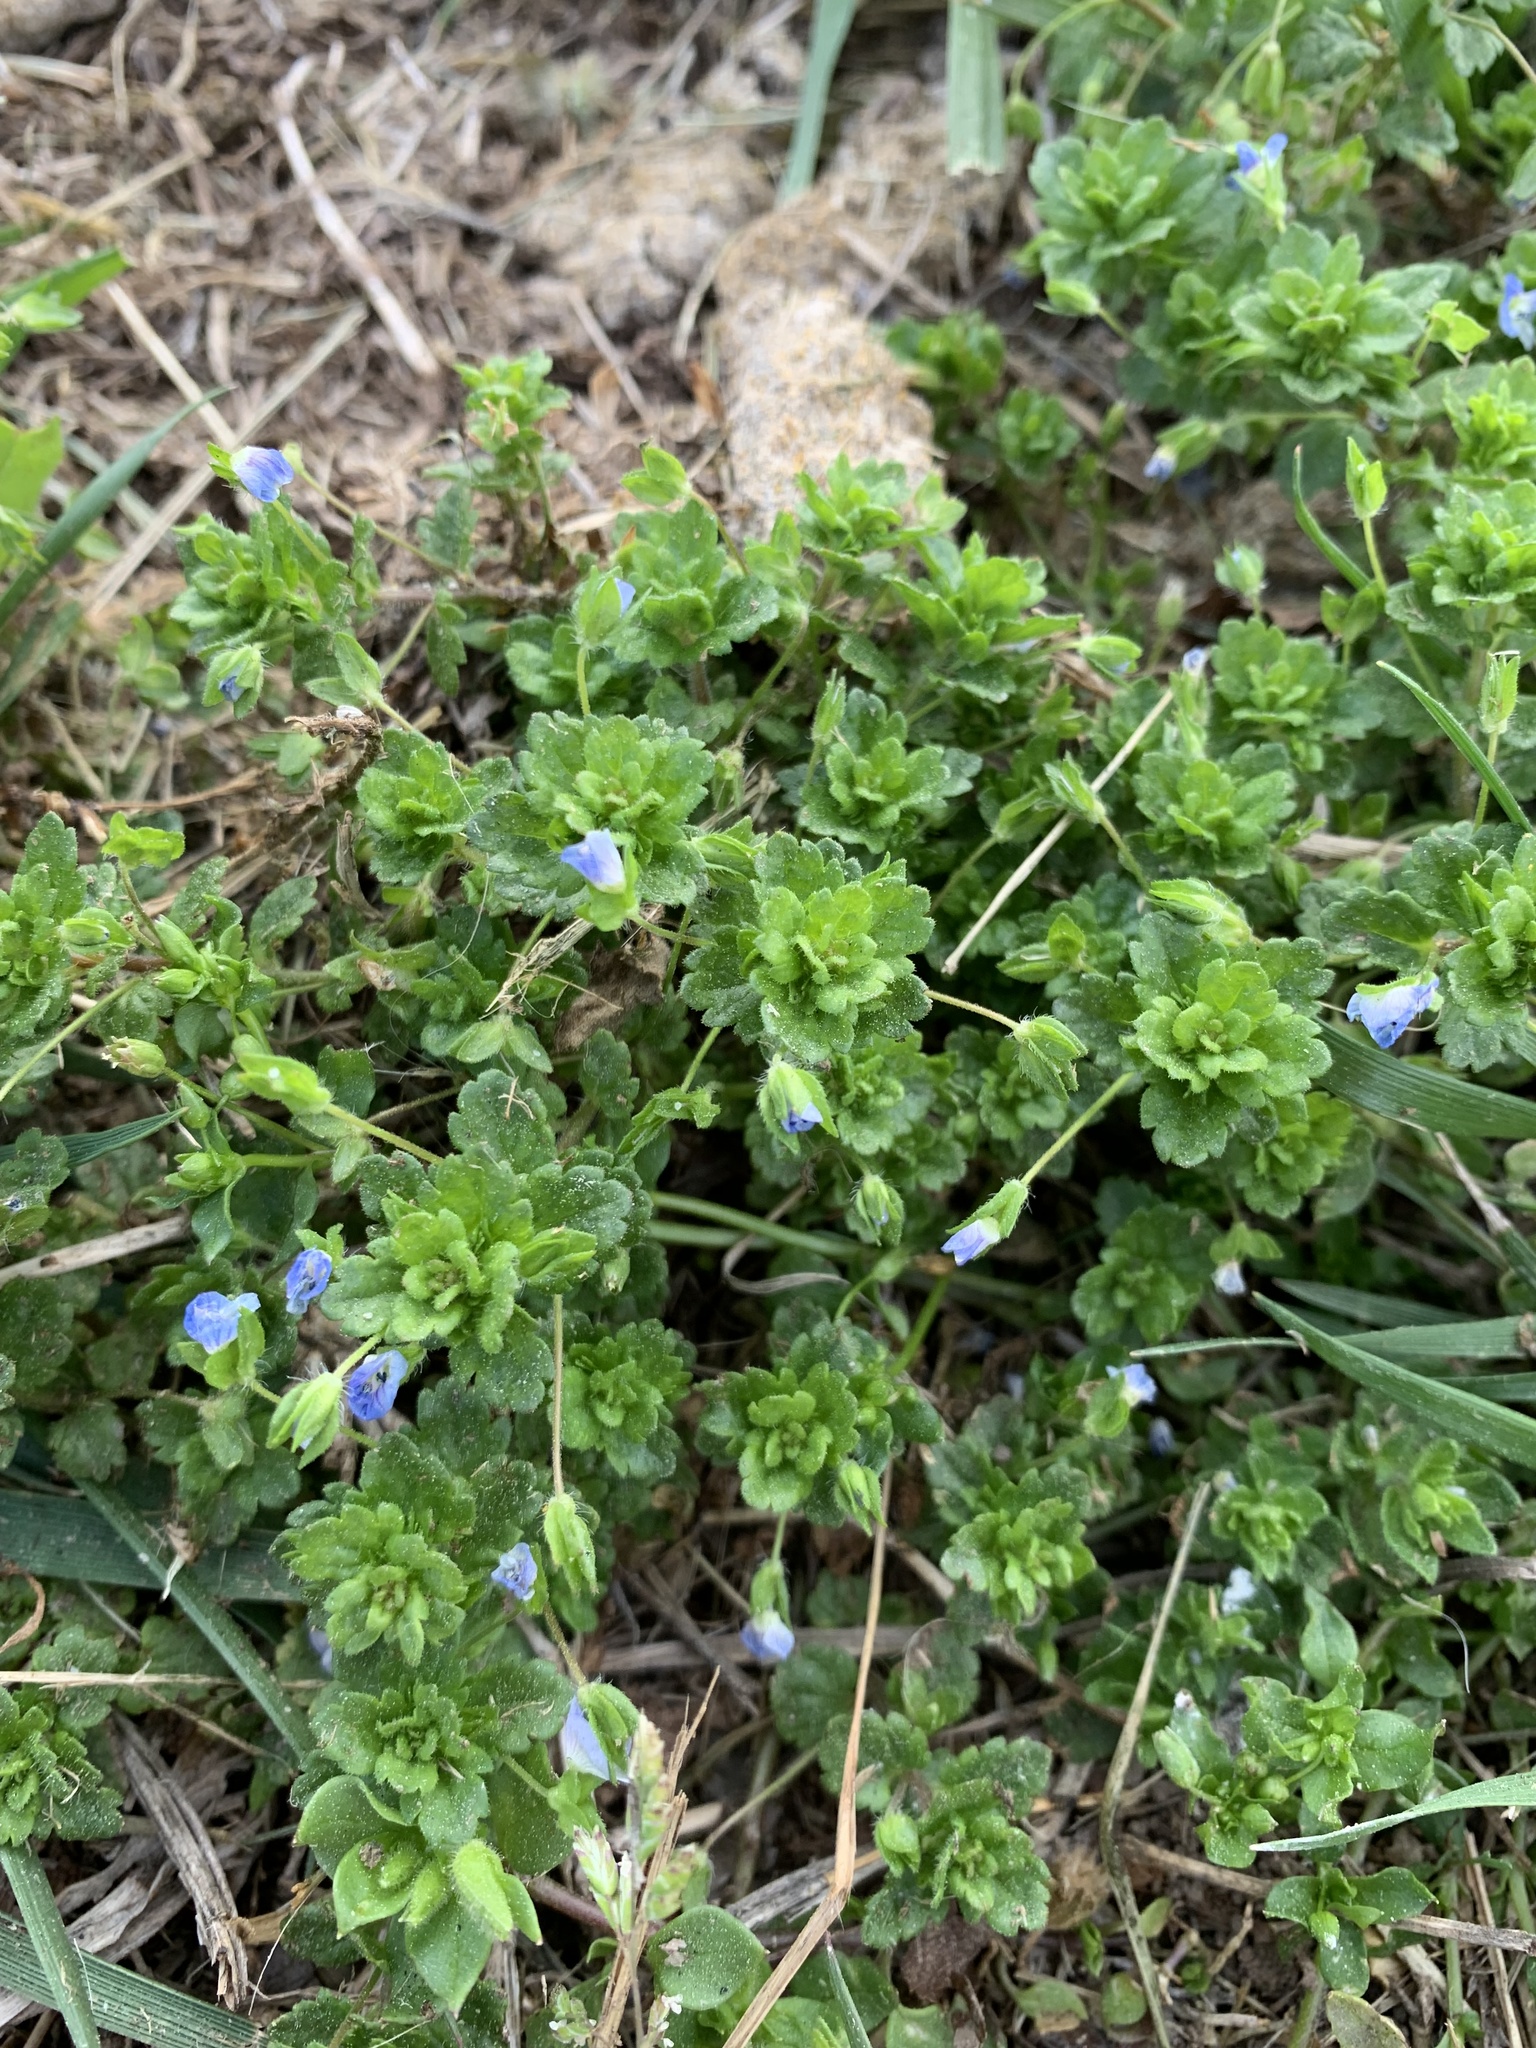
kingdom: Plantae
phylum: Tracheophyta
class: Magnoliopsida
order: Lamiales
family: Plantaginaceae
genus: Veronica
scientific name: Veronica persica
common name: Common field-speedwell
